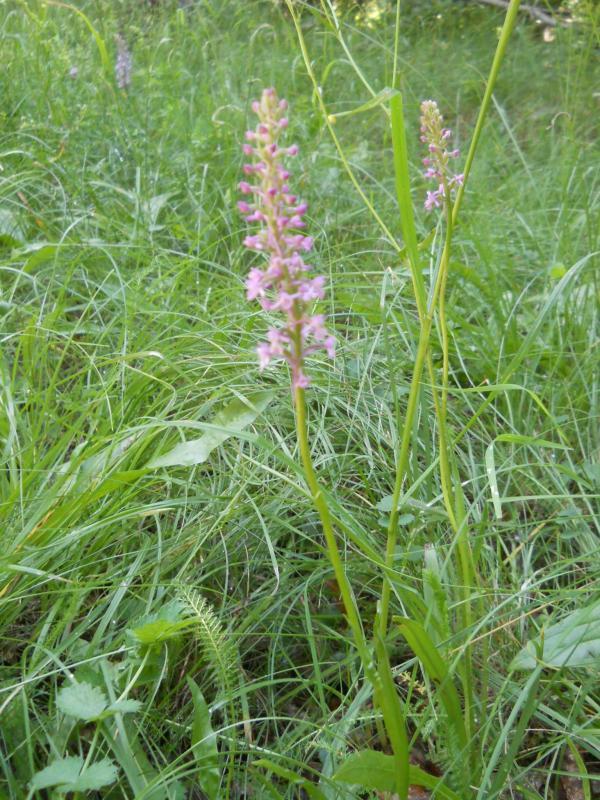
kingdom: Plantae
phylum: Tracheophyta
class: Liliopsida
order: Asparagales
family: Orchidaceae
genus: Gymnadenia
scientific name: Gymnadenia conopsea
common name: Fragrant orchid
